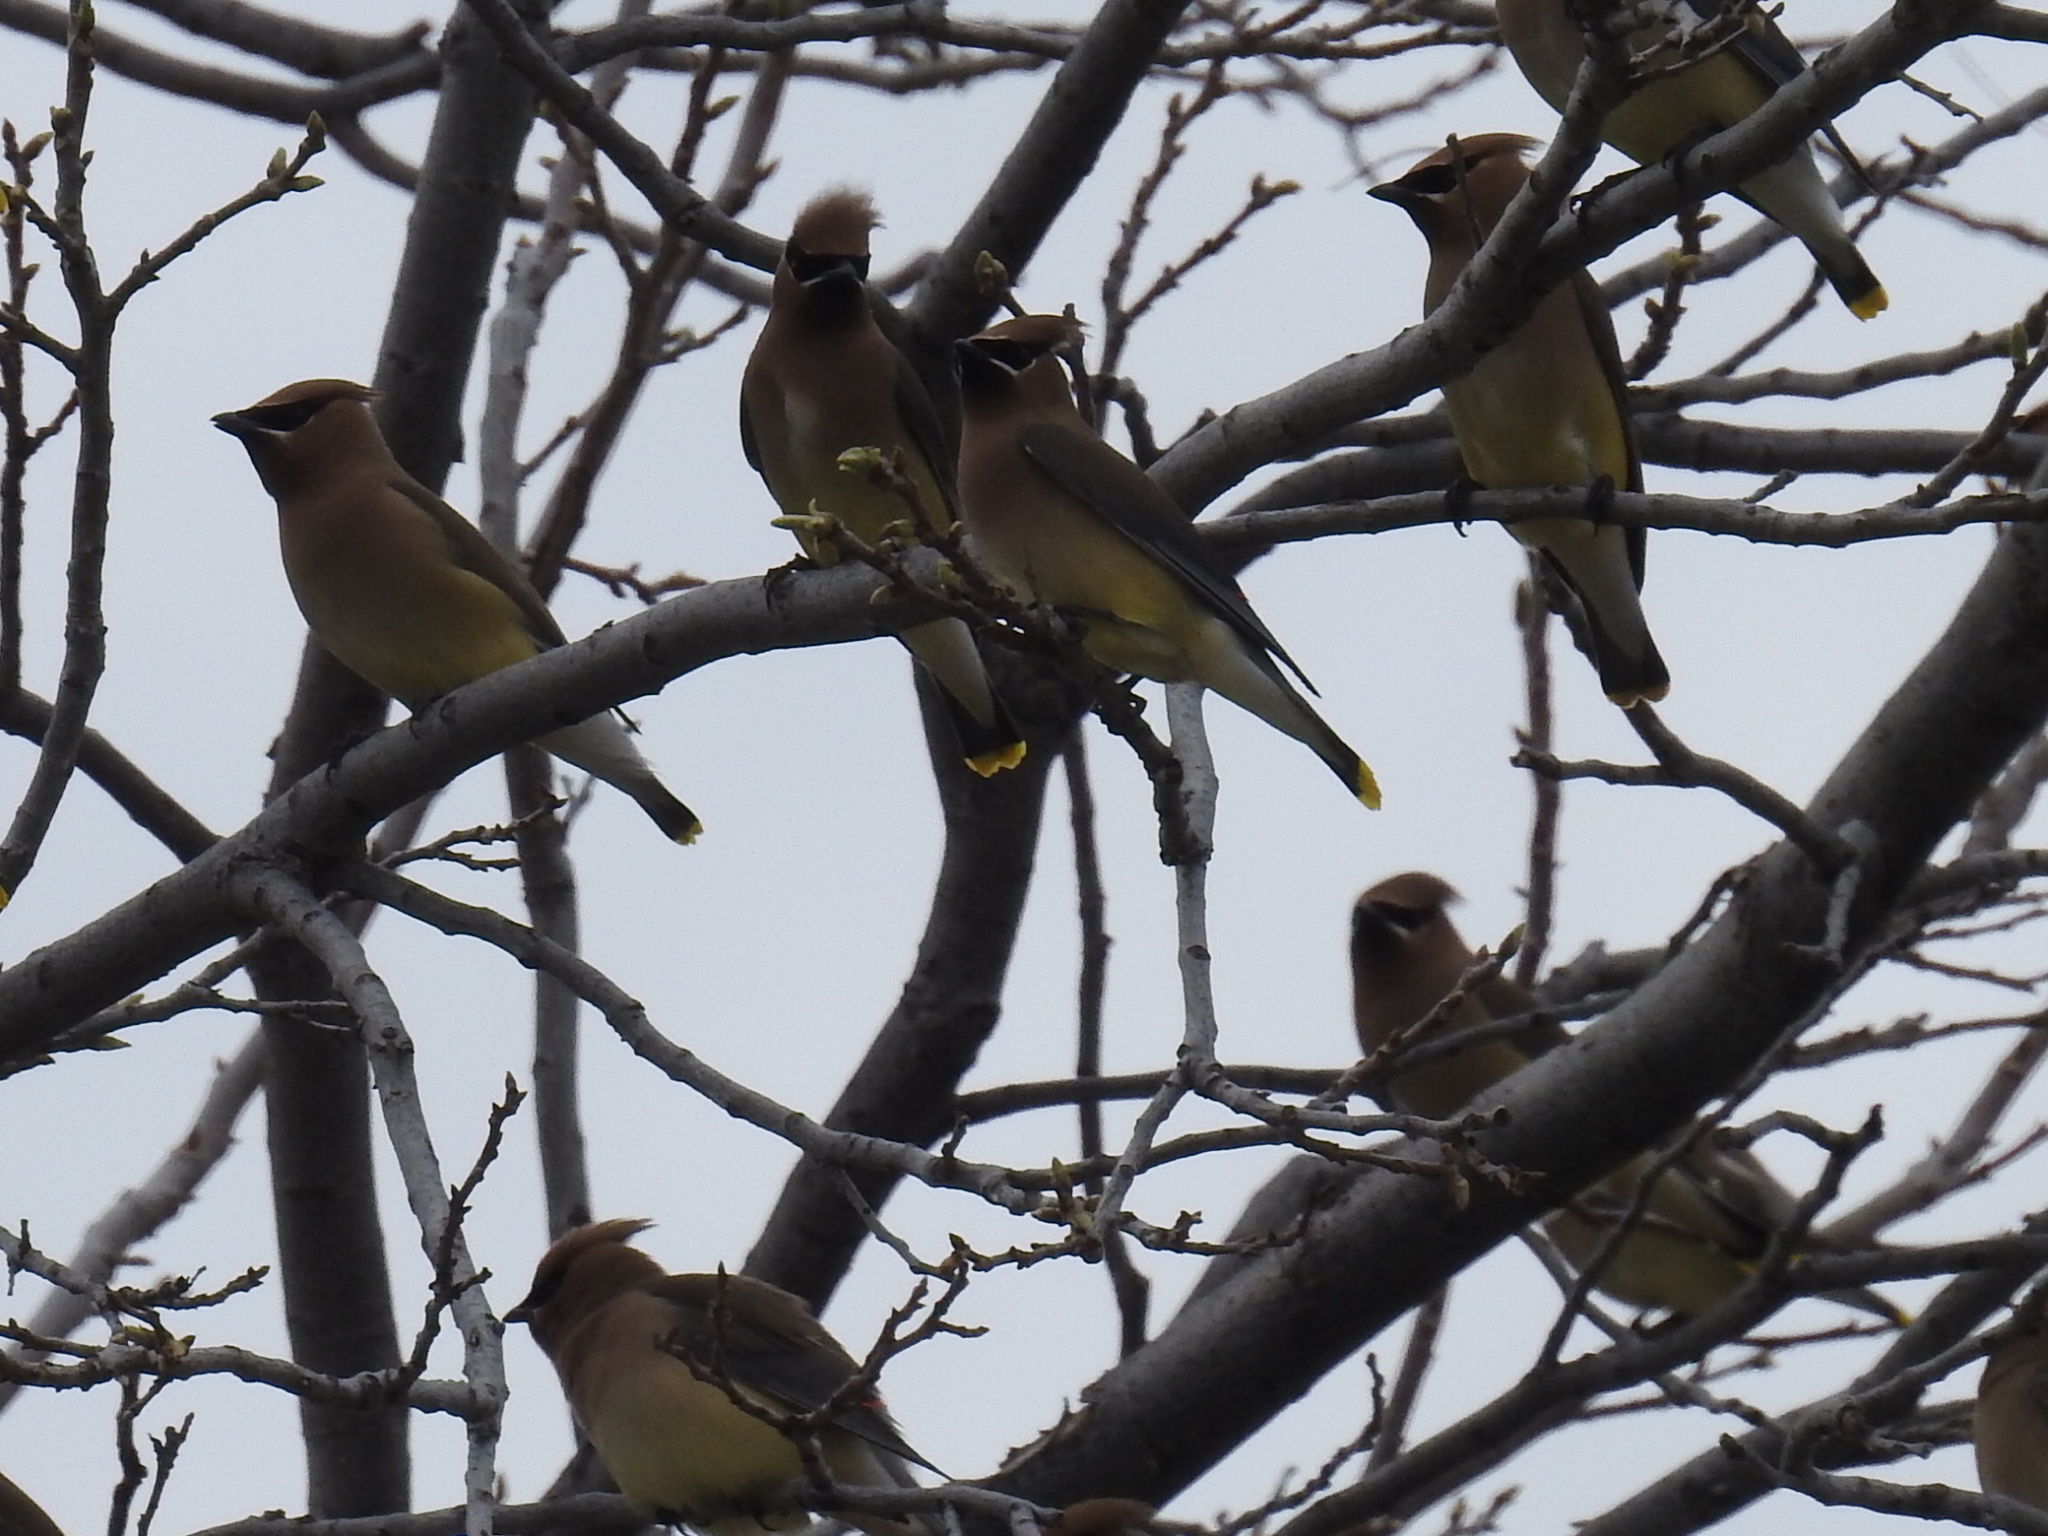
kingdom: Animalia
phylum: Chordata
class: Aves
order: Passeriformes
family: Bombycillidae
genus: Bombycilla
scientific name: Bombycilla cedrorum
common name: Cedar waxwing
